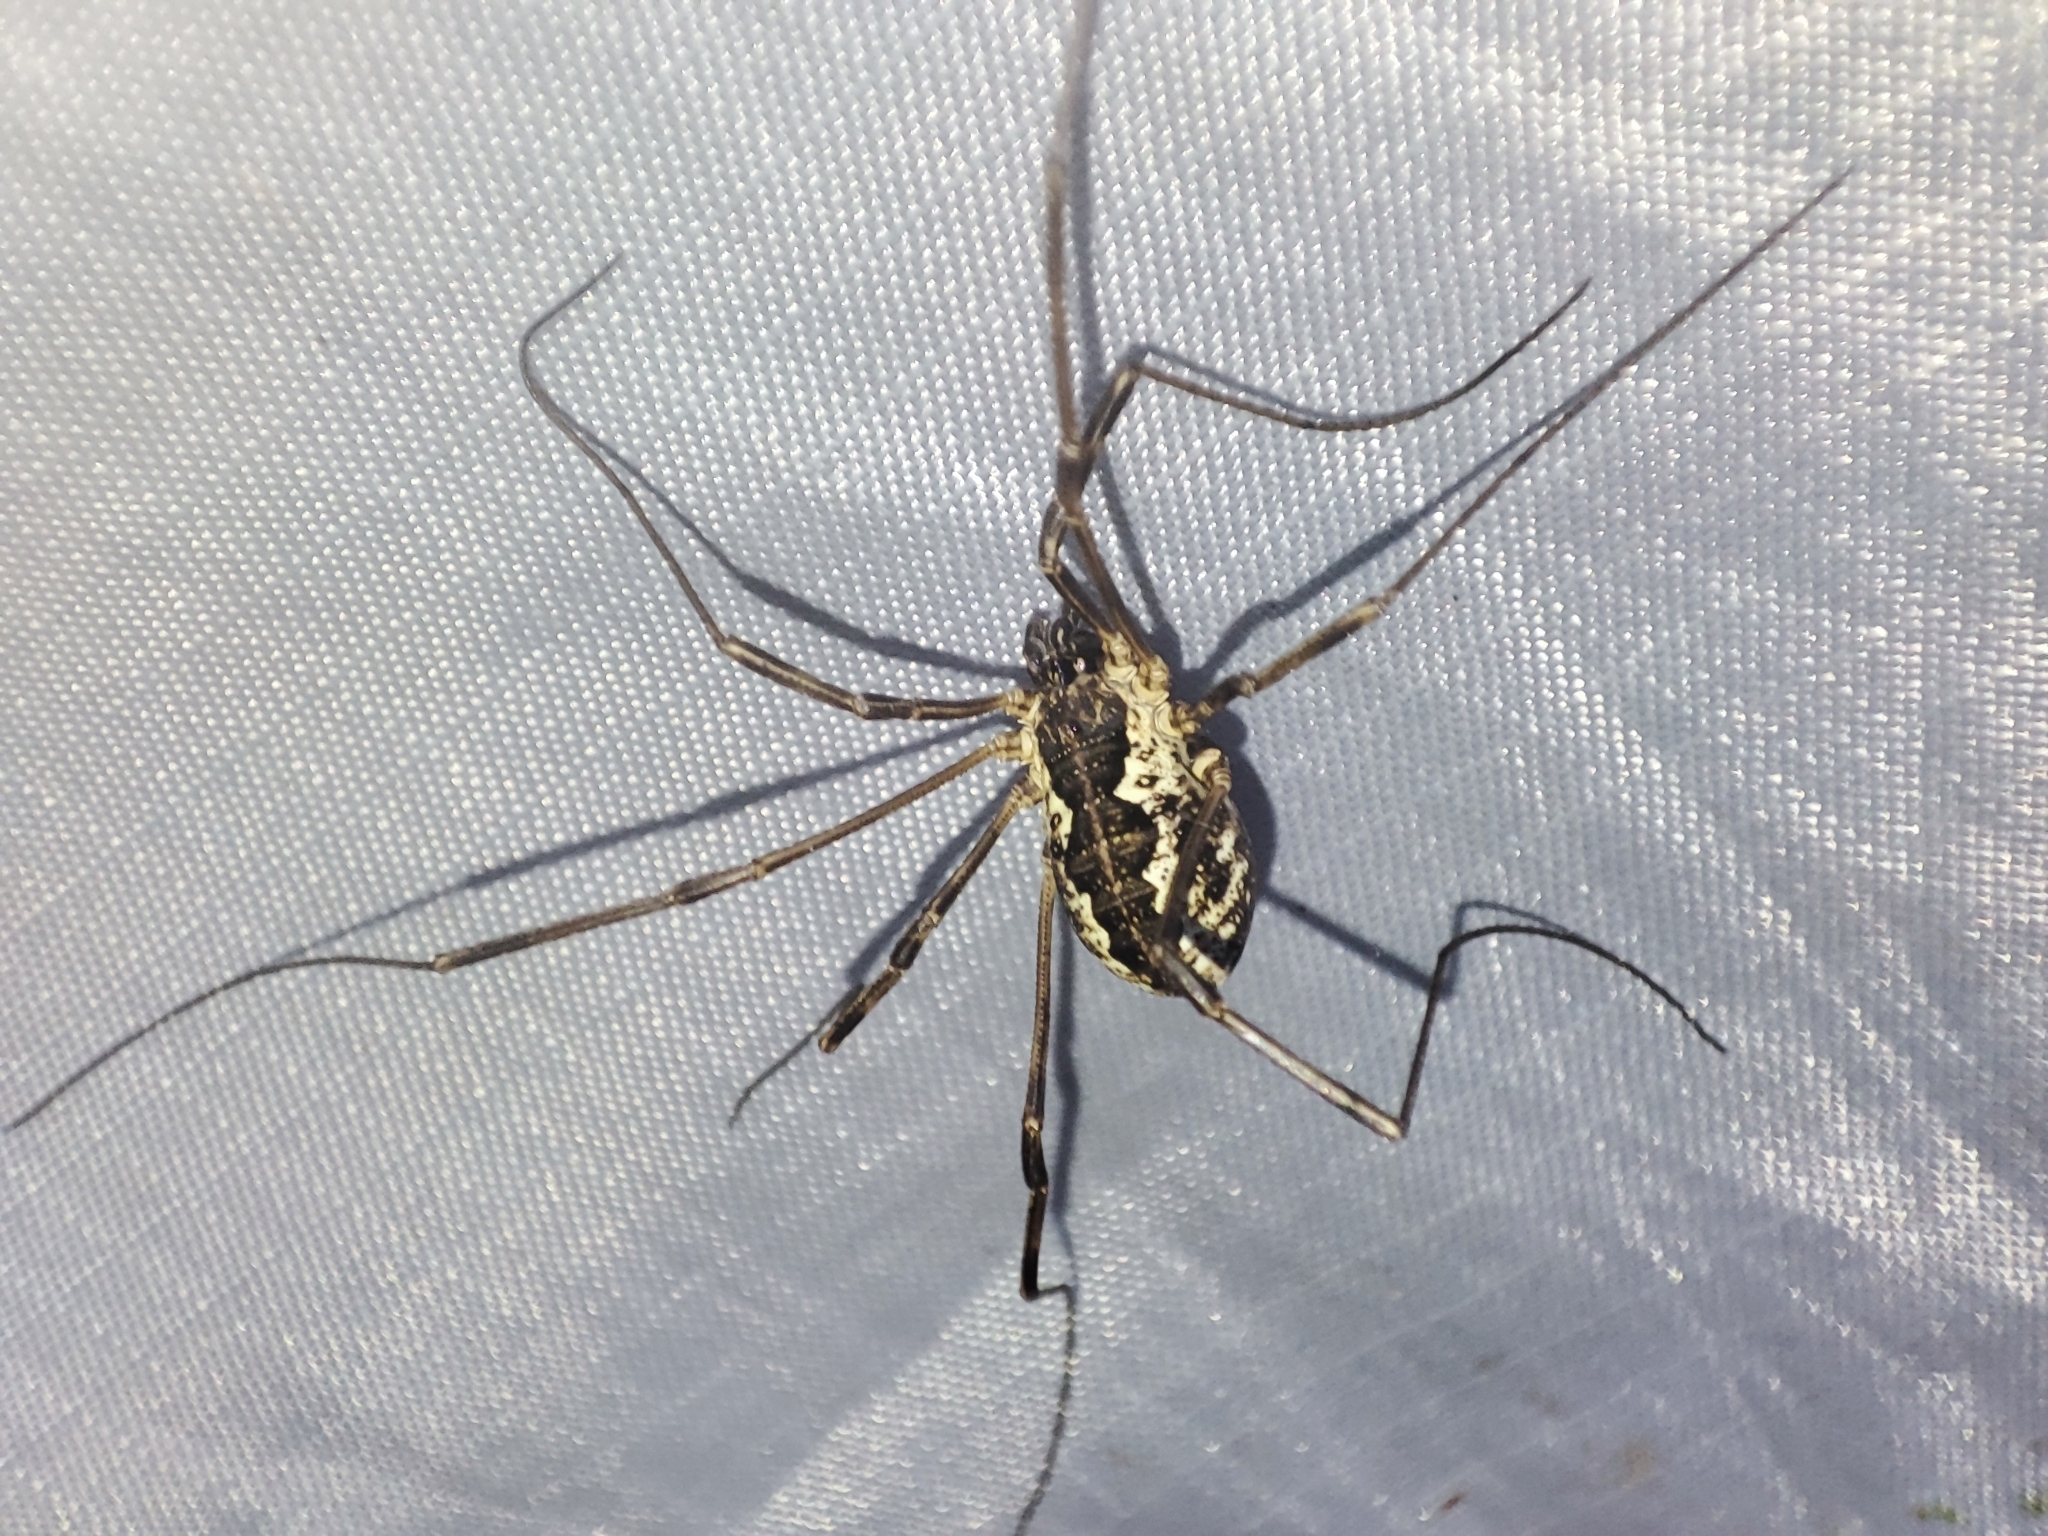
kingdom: Animalia
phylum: Arthropoda
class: Arachnida
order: Opiliones
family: Phalangiidae
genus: Mitopus
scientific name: Mitopus morio
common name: Saddleback harvestman
